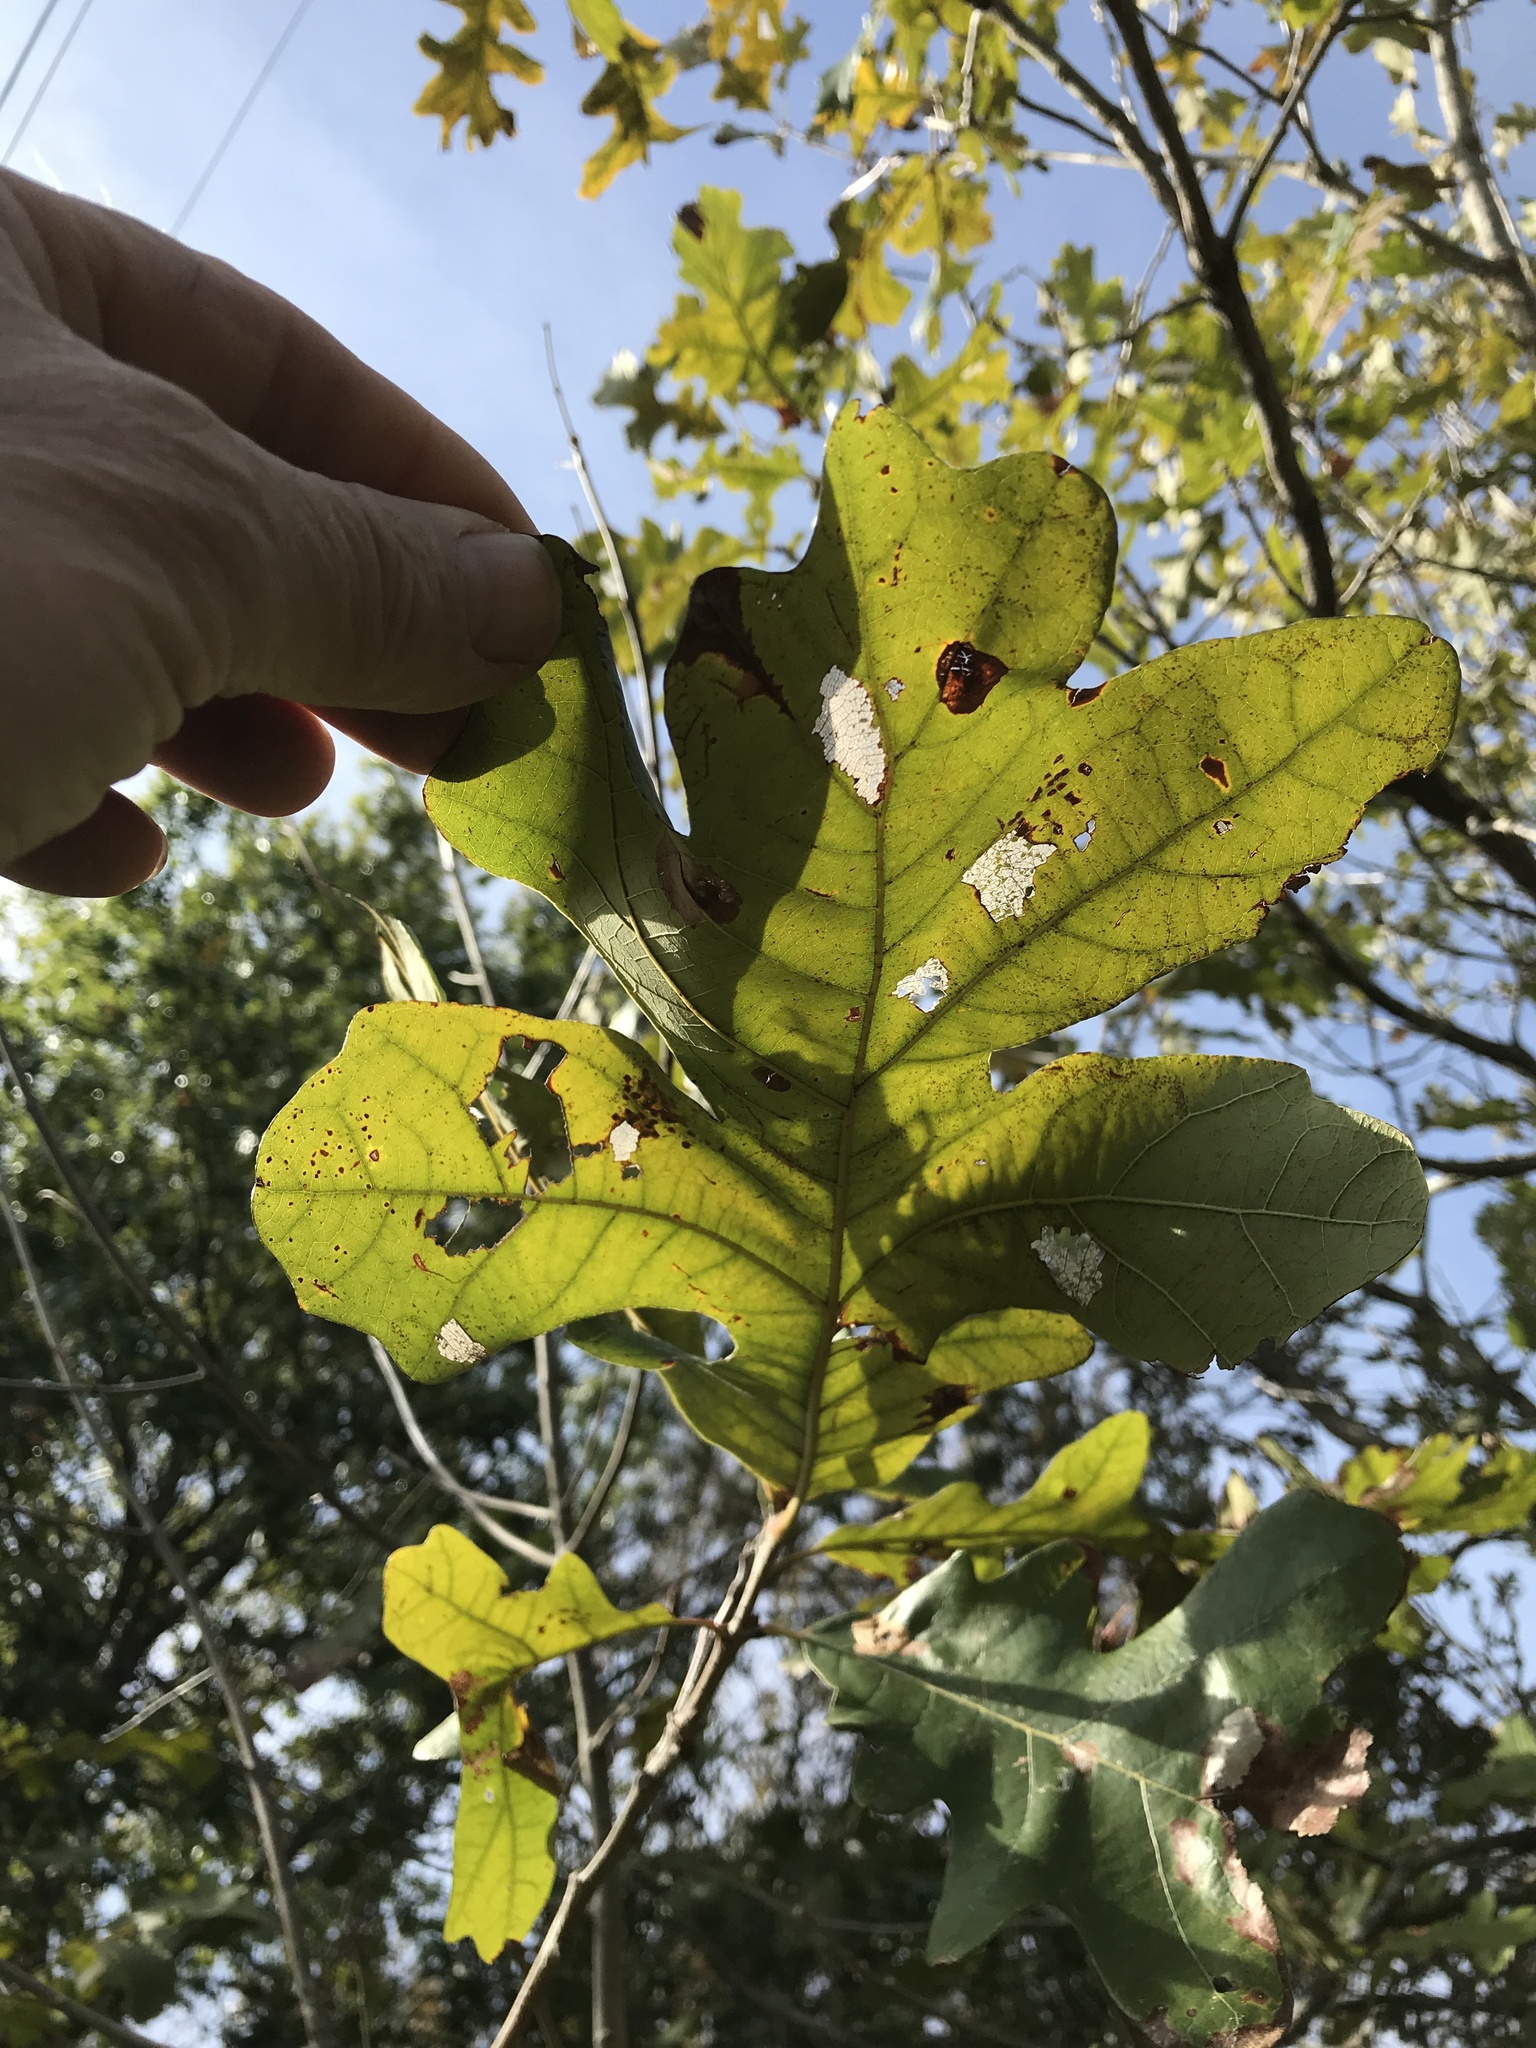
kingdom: Plantae
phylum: Tracheophyta
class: Magnoliopsida
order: Fagales
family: Fagaceae
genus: Quercus
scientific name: Quercus macrocarpa
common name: Bur oak
